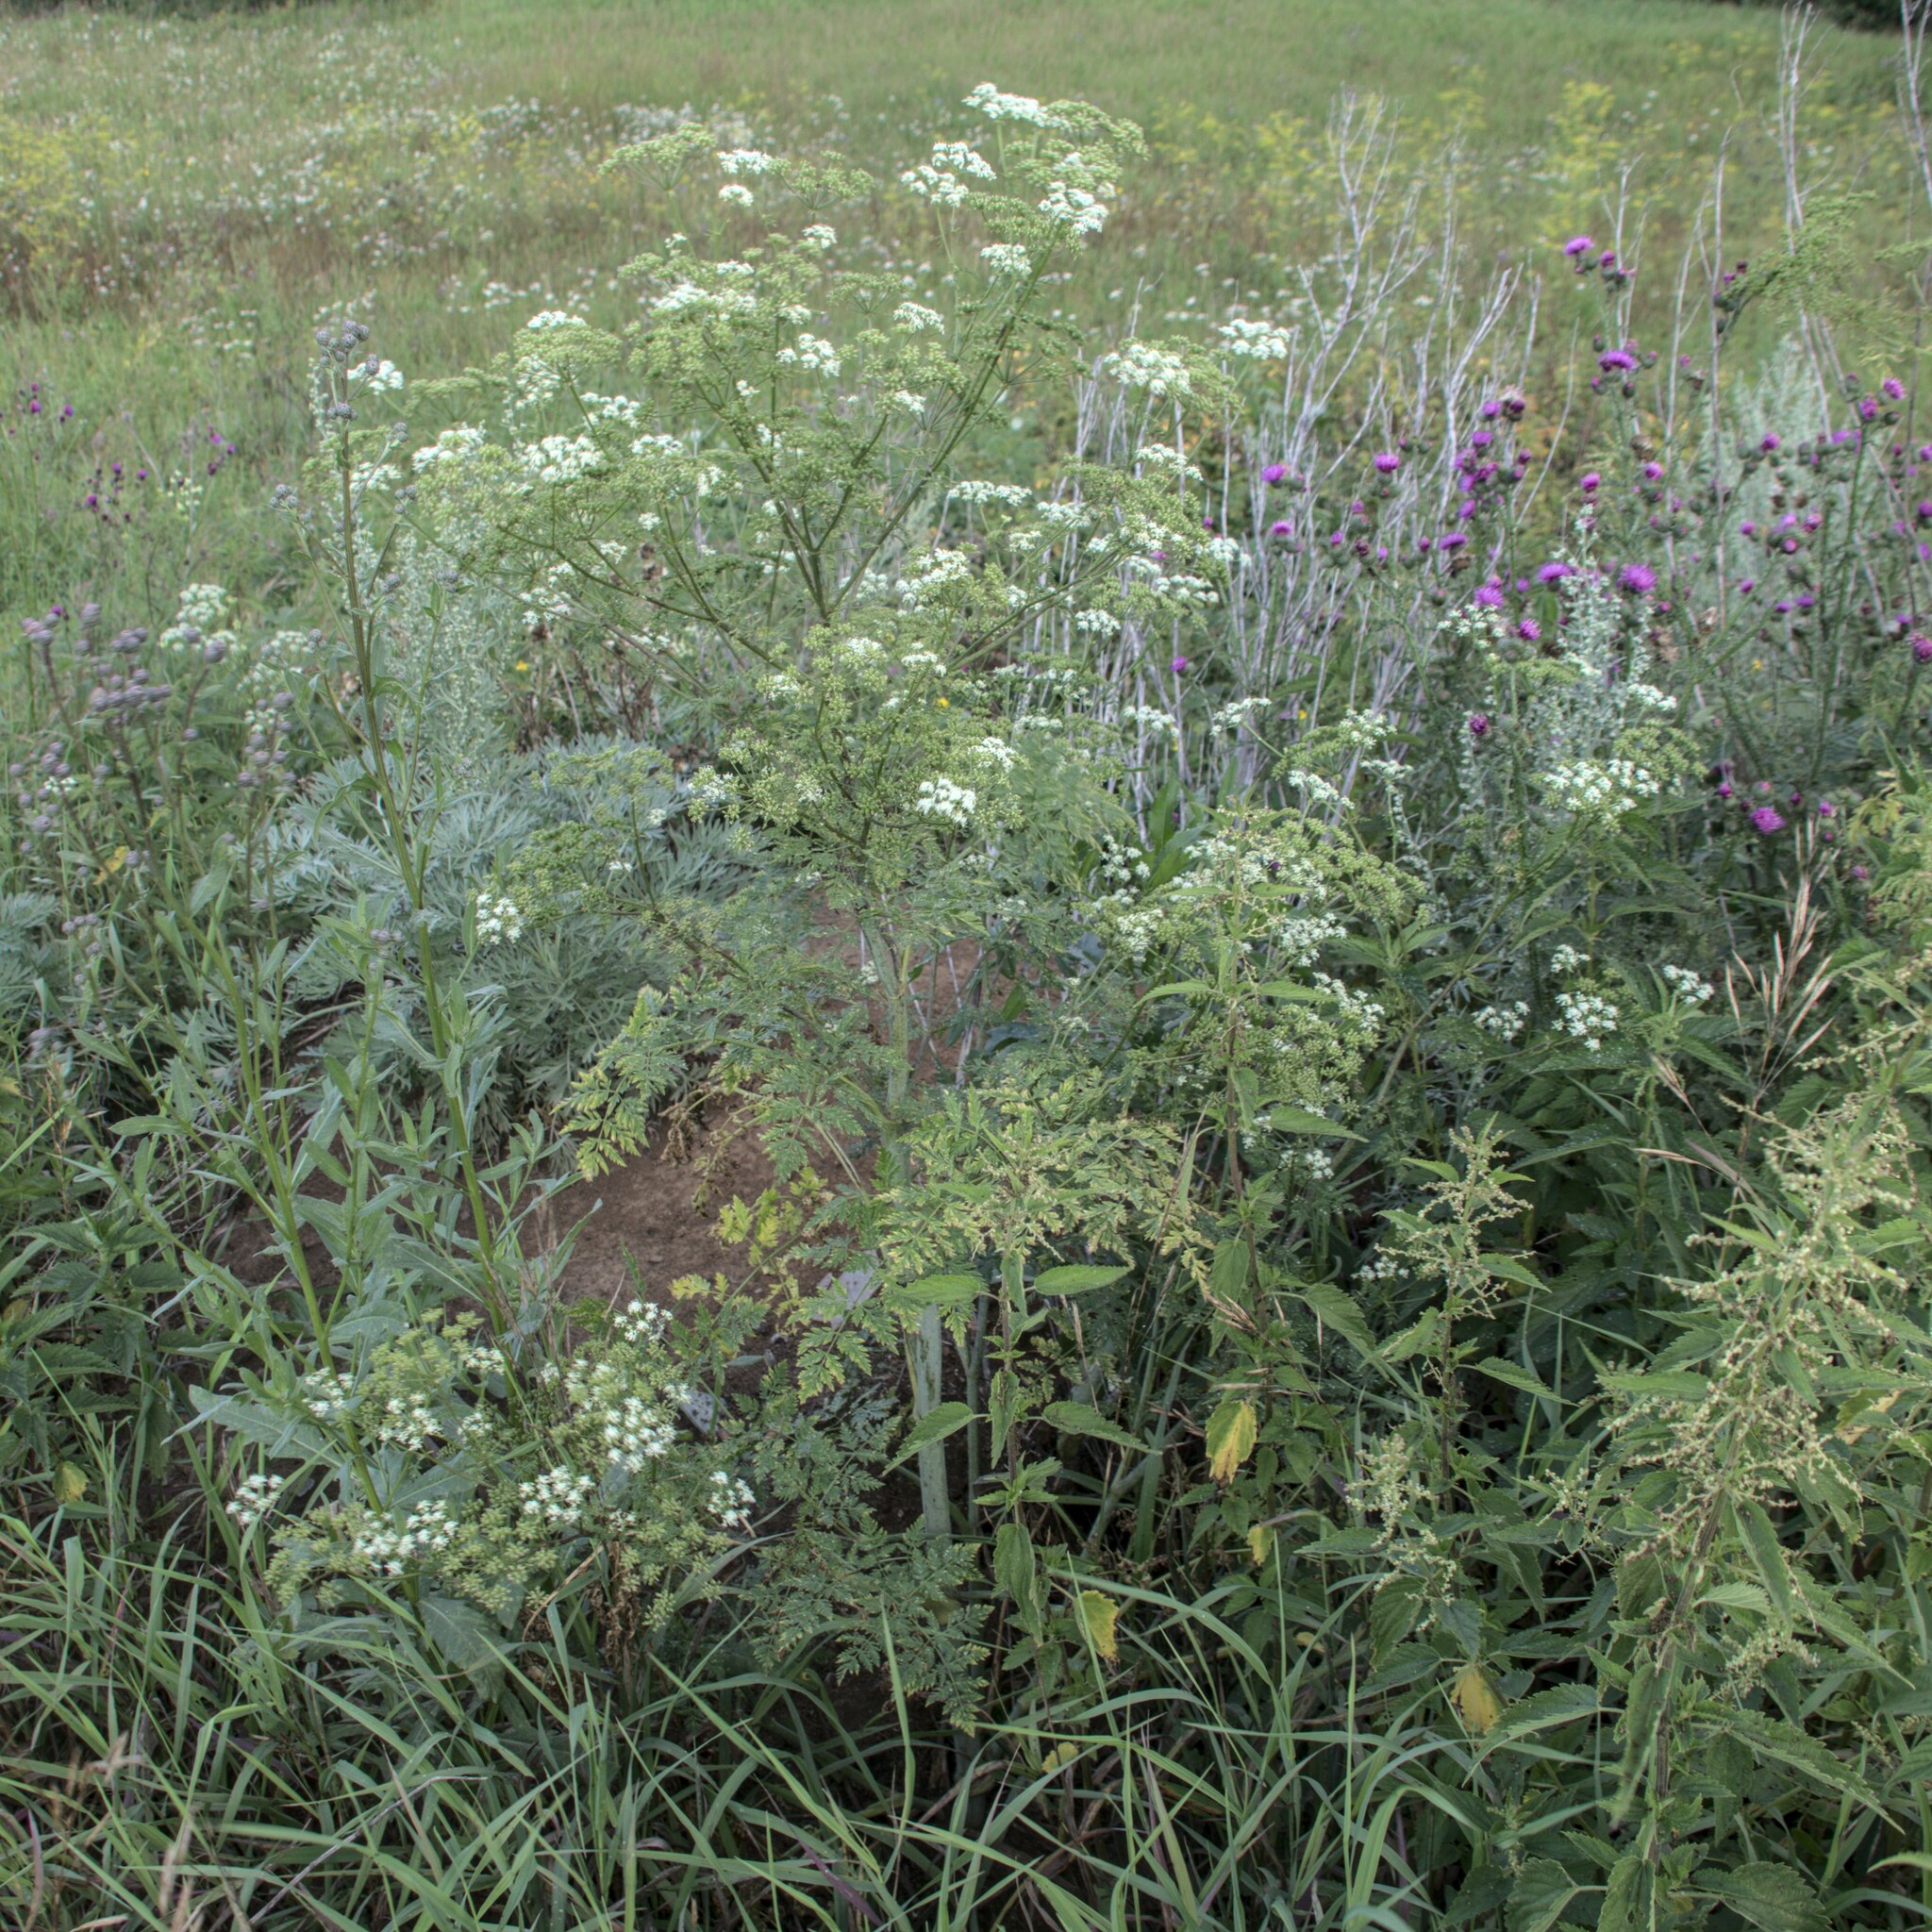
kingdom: Plantae
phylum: Tracheophyta
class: Magnoliopsida
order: Apiales
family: Apiaceae
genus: Conium
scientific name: Conium maculatum
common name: Hemlock
